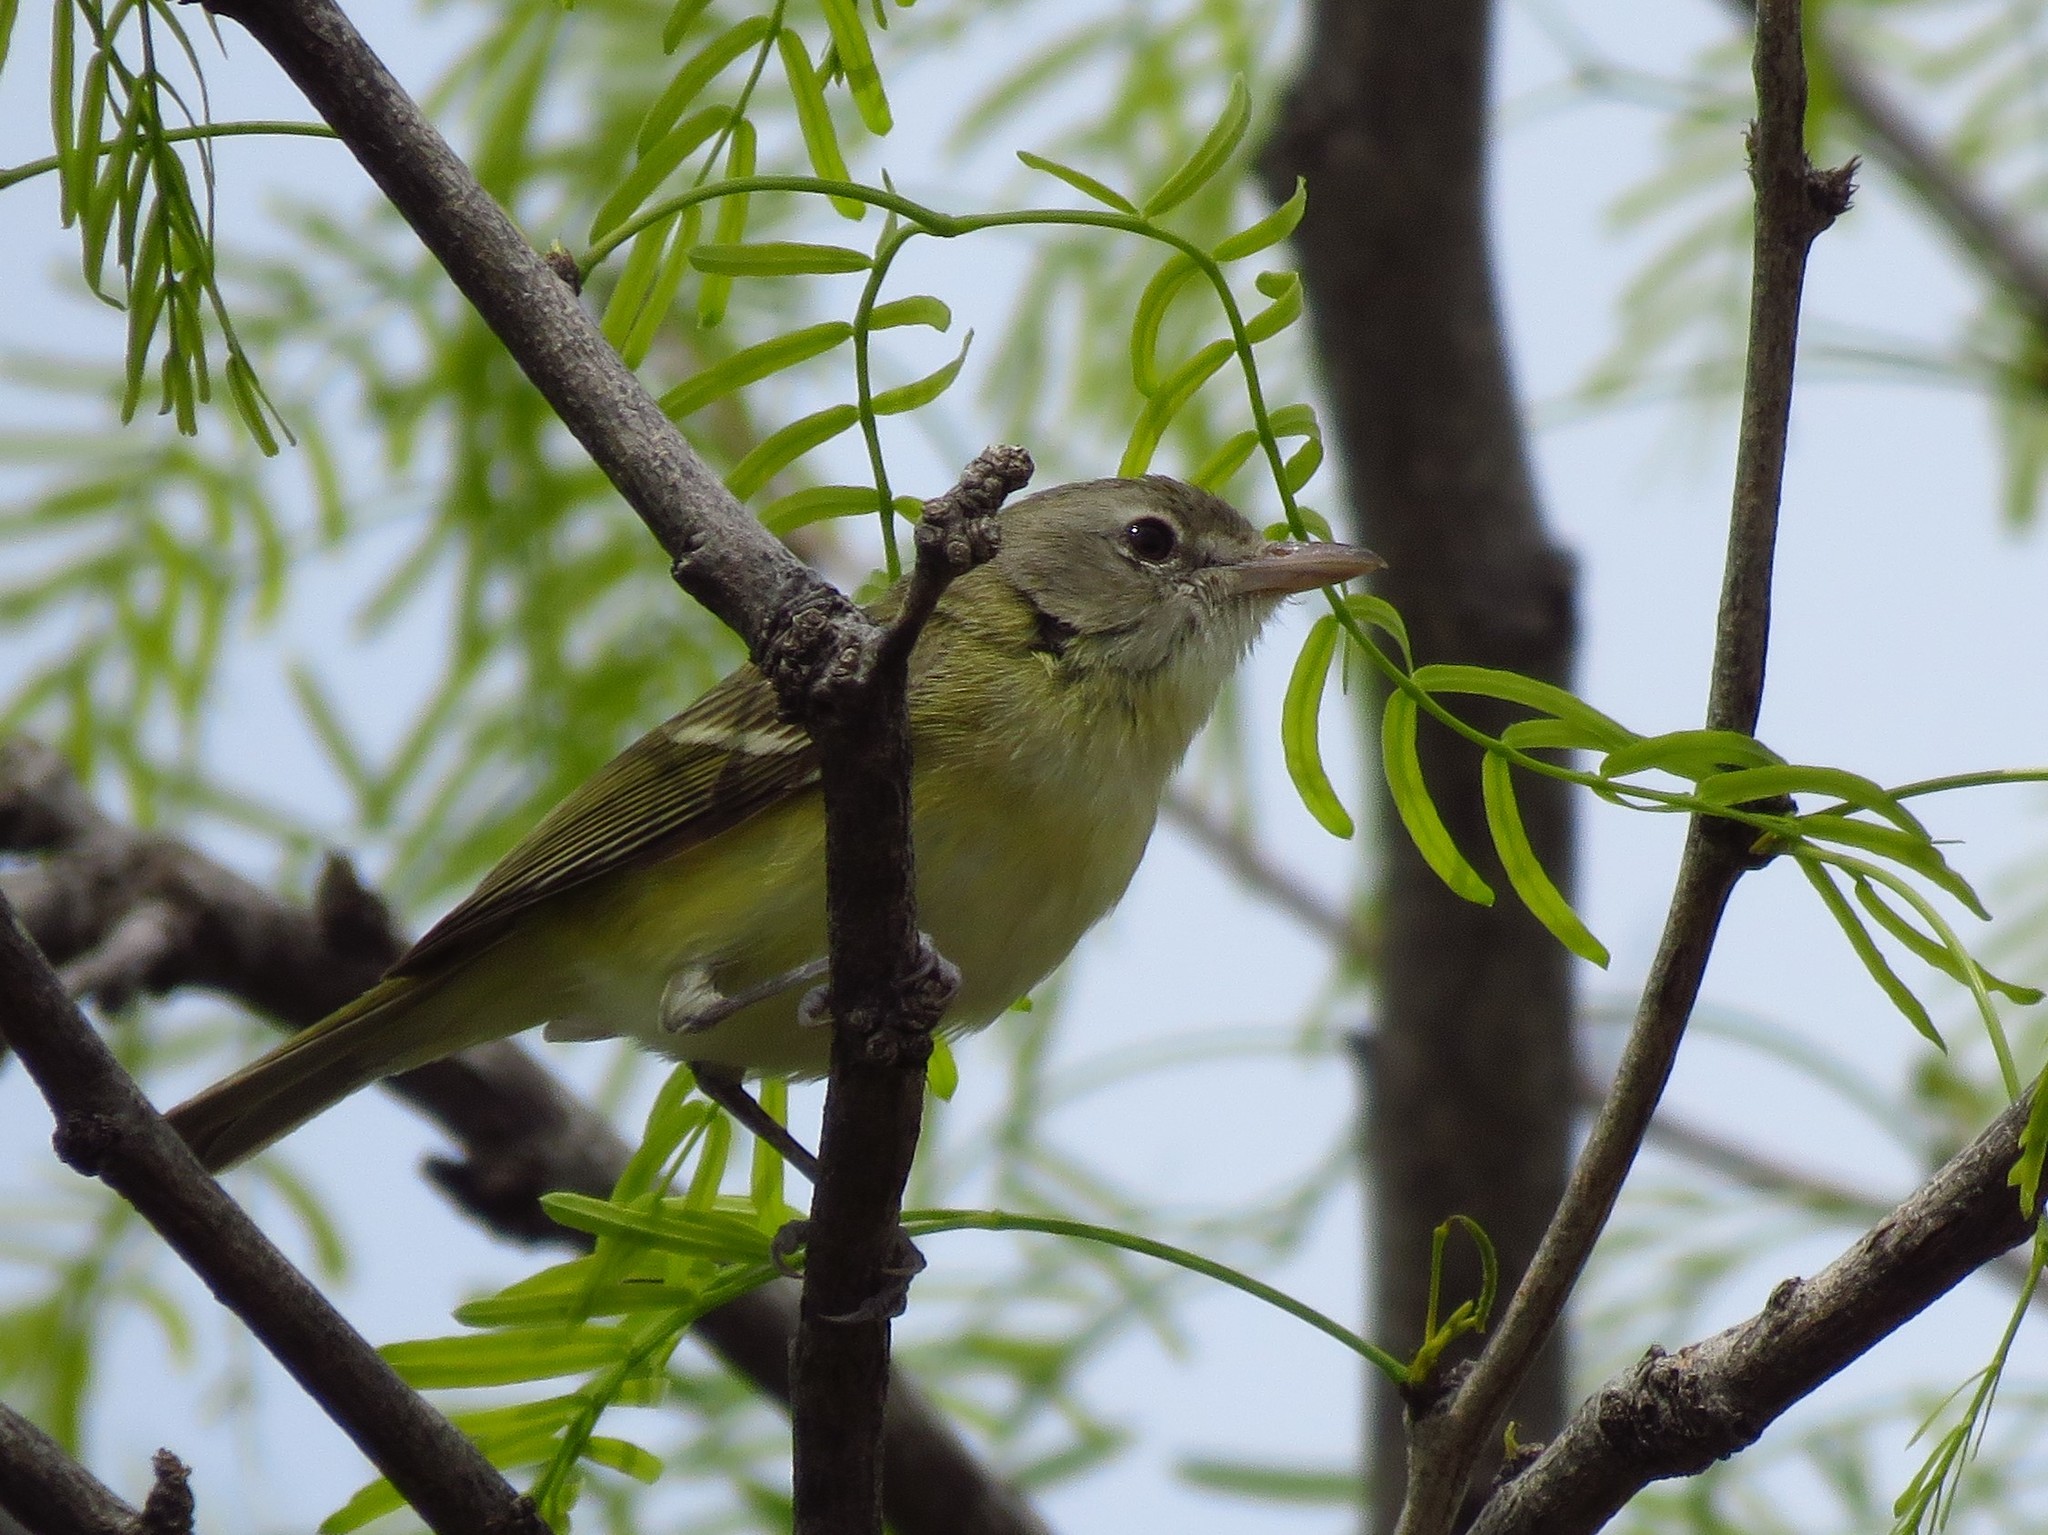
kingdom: Animalia
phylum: Chordata
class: Aves
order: Passeriformes
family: Vireonidae
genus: Vireo
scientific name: Vireo bellii
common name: Bell's vireo
